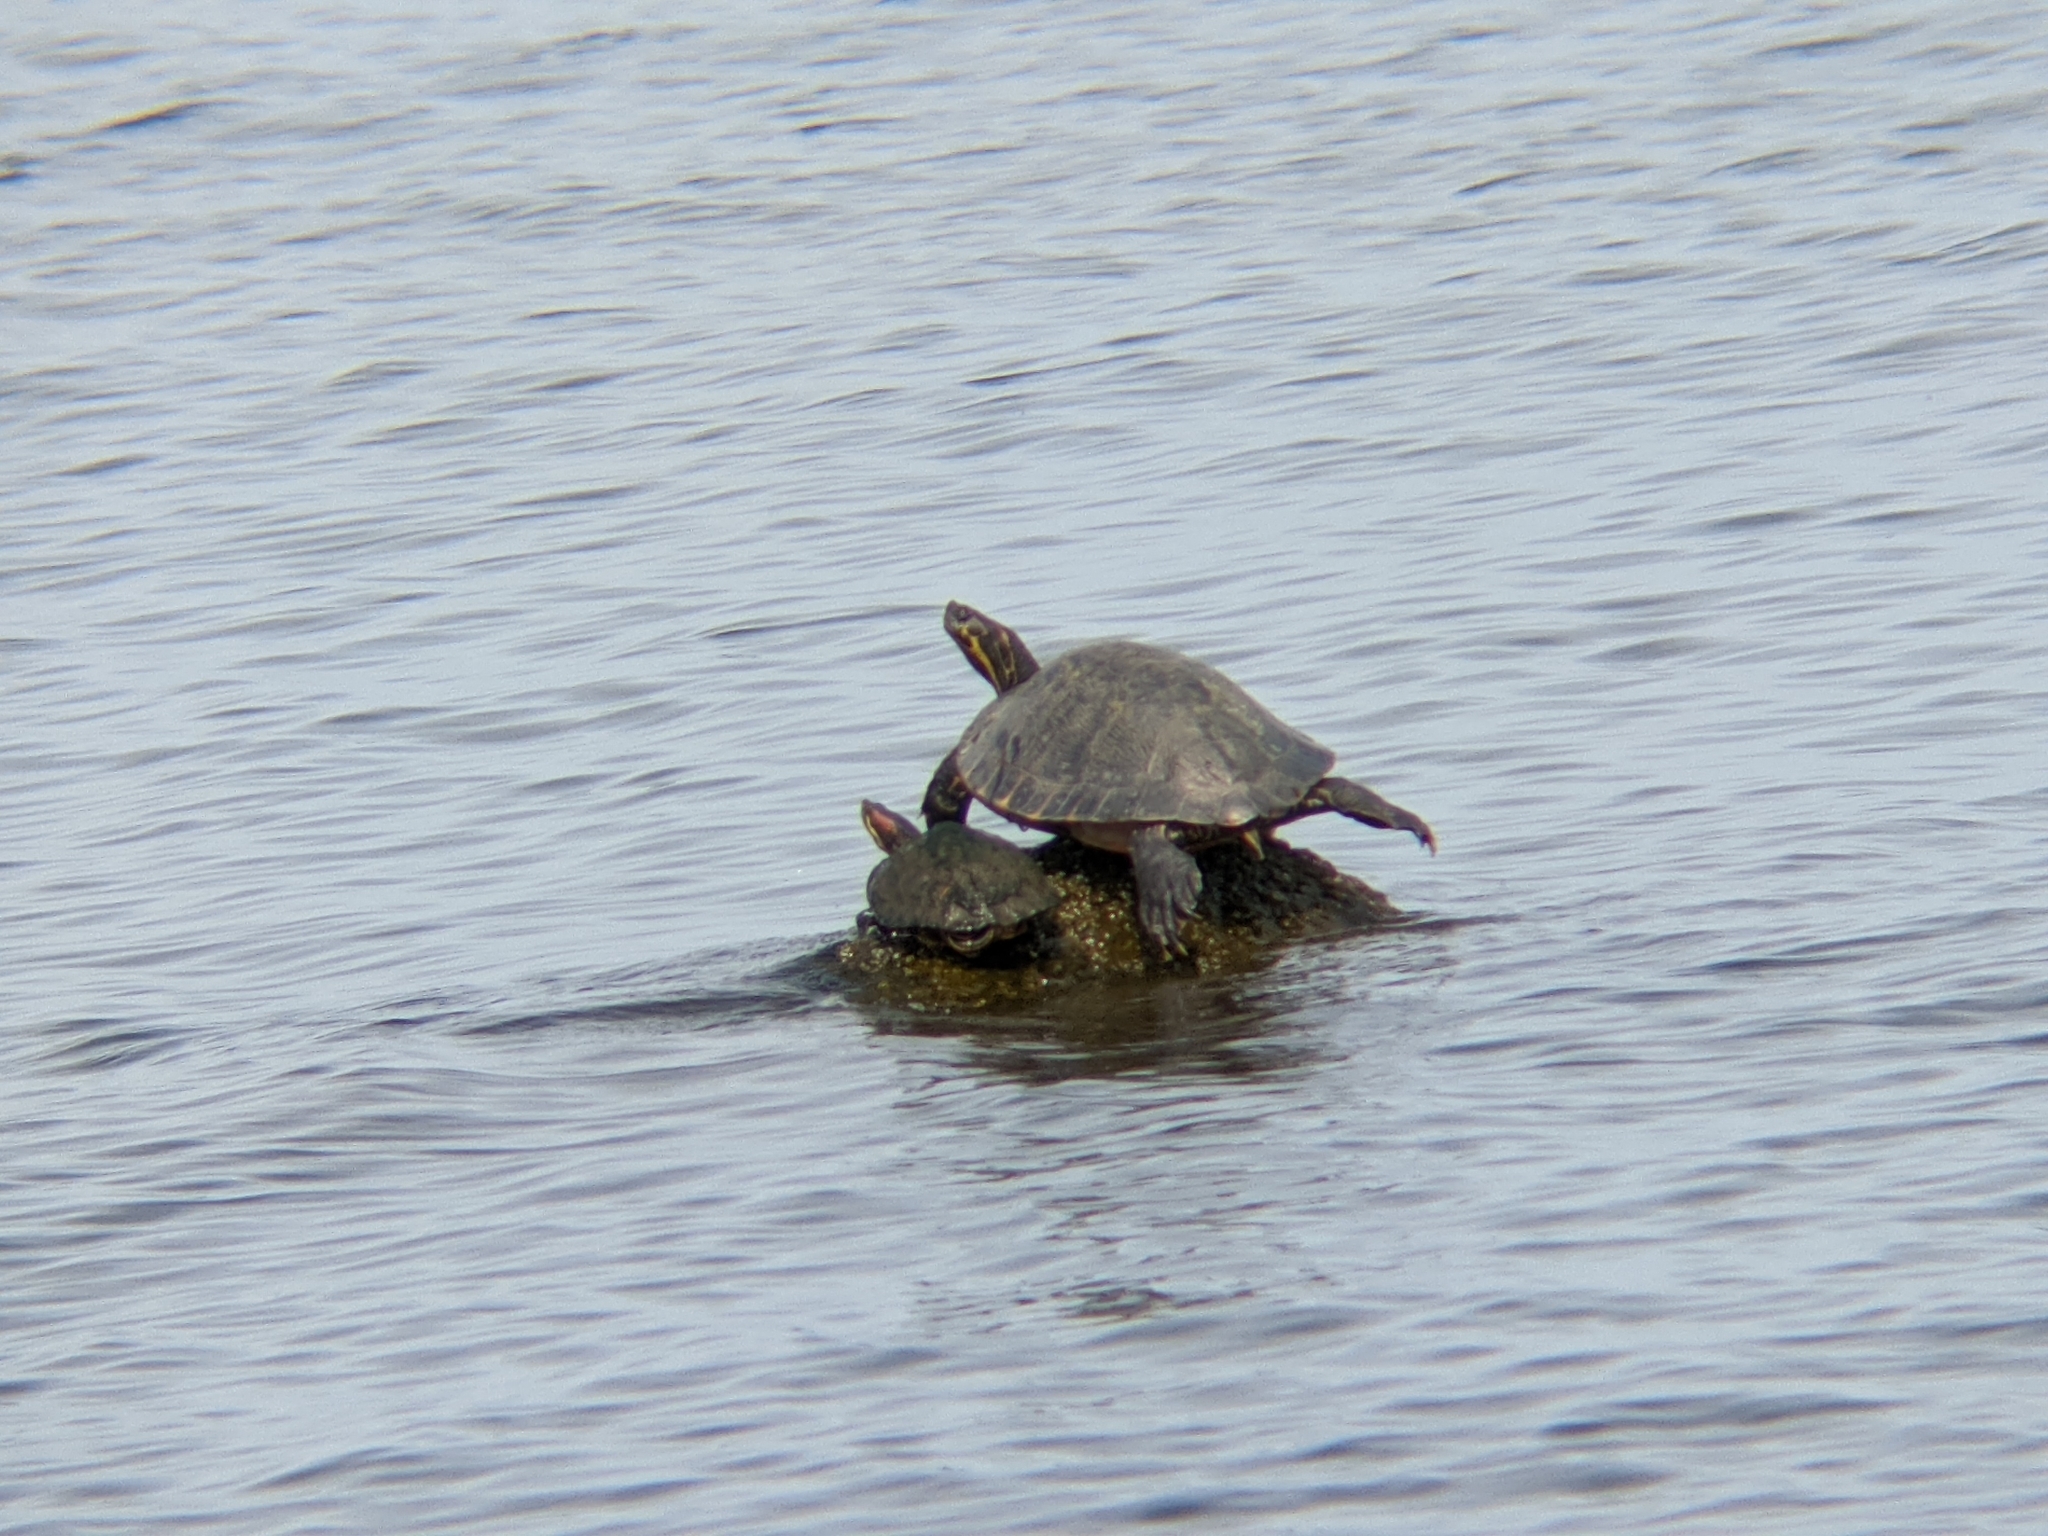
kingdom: Animalia
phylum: Chordata
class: Testudines
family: Emydidae
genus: Trachemys
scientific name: Trachemys scripta
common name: Slider
